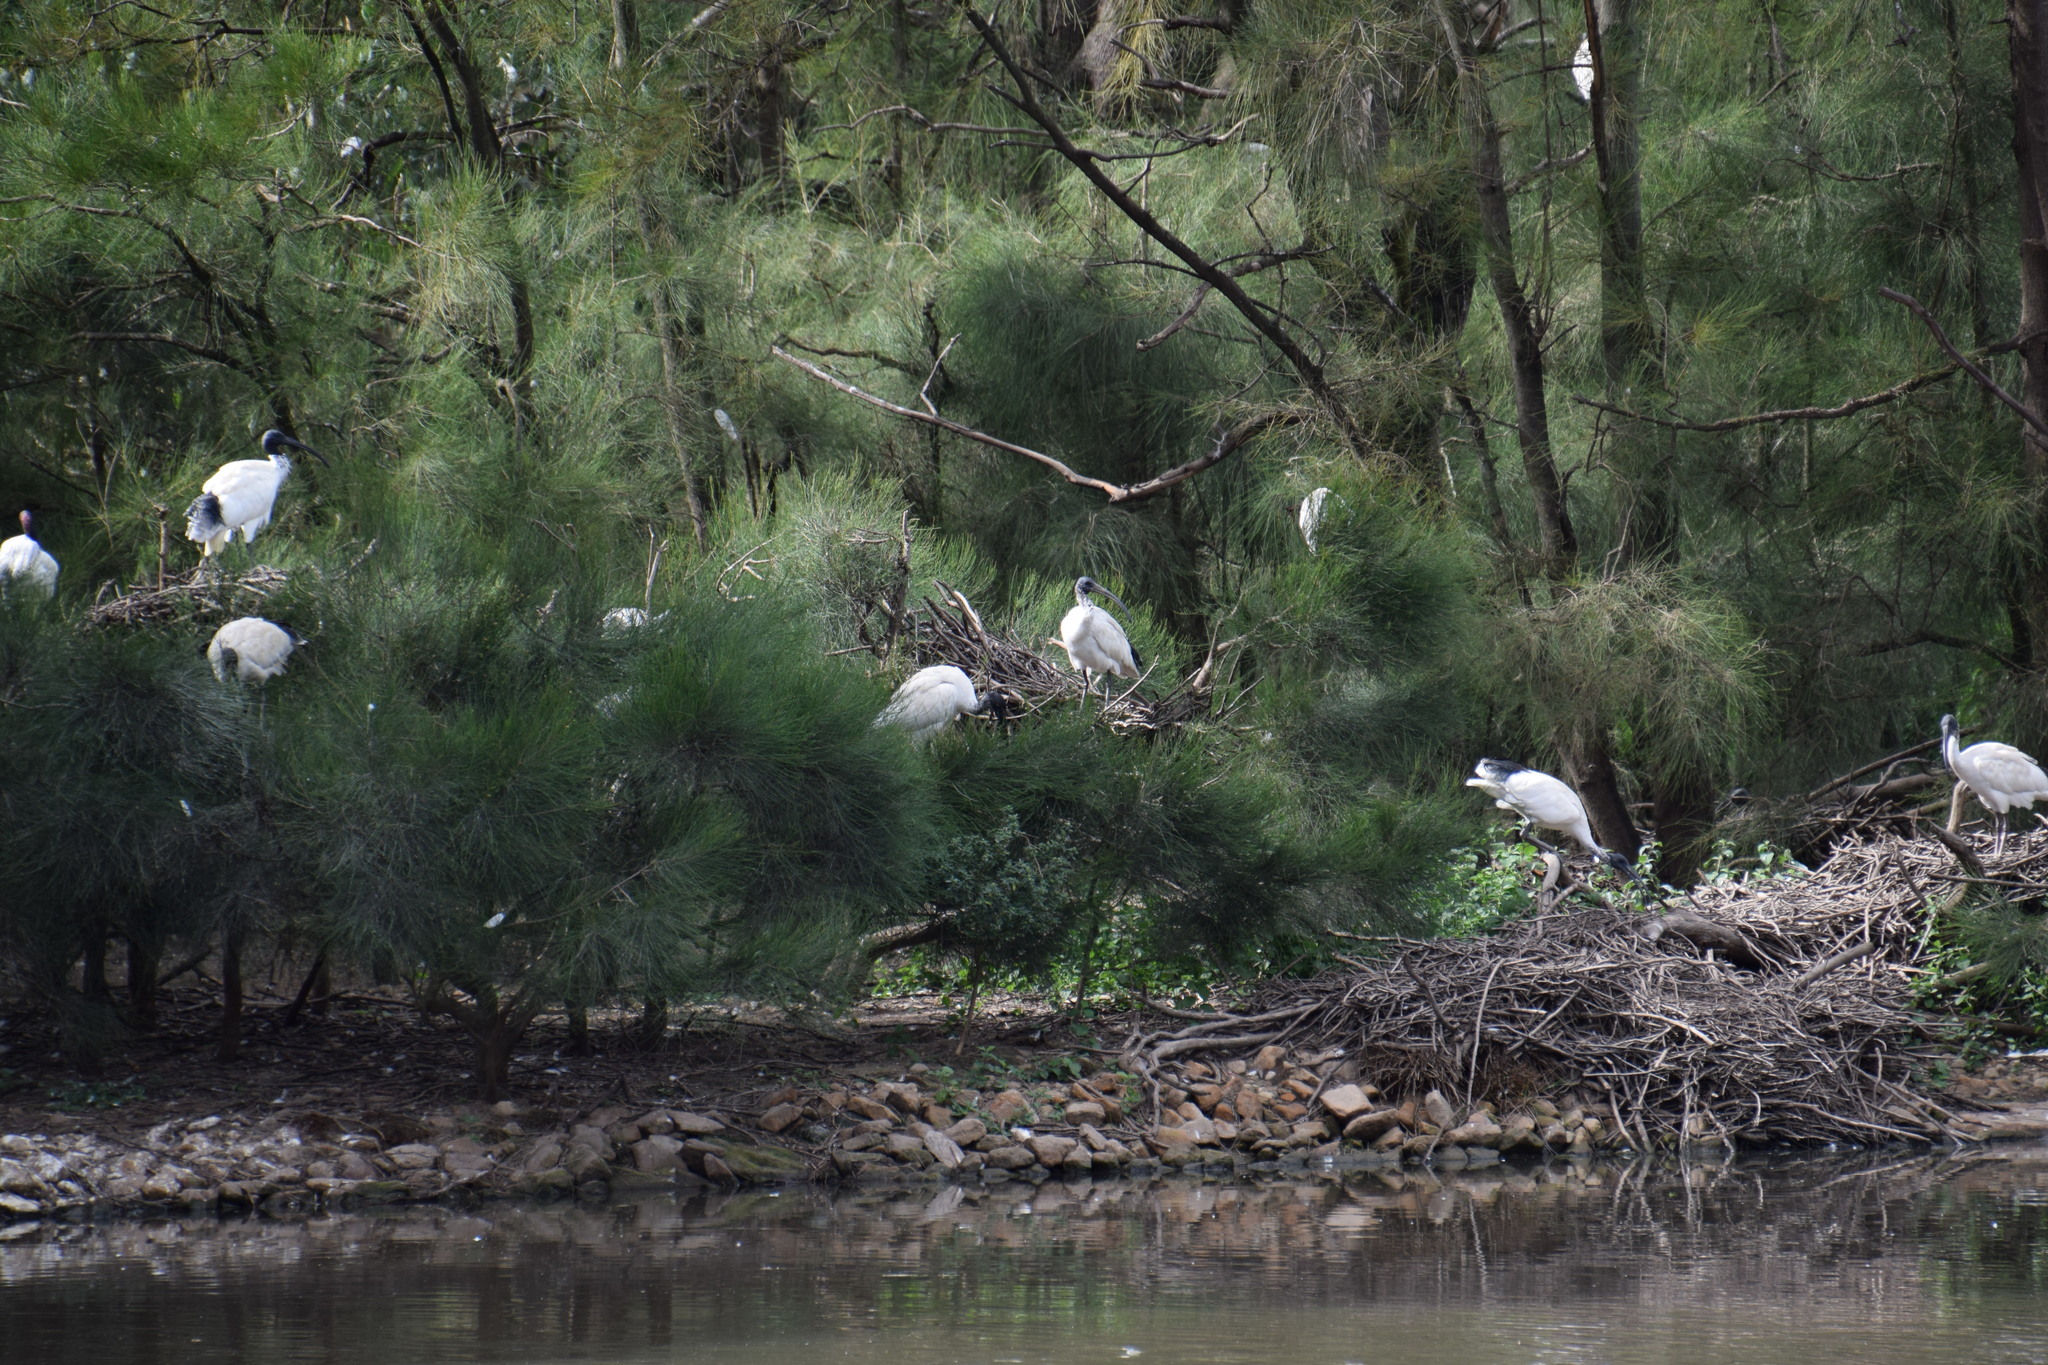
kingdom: Animalia
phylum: Chordata
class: Aves
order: Pelecaniformes
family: Threskiornithidae
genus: Threskiornis
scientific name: Threskiornis molucca
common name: Australian white ibis
